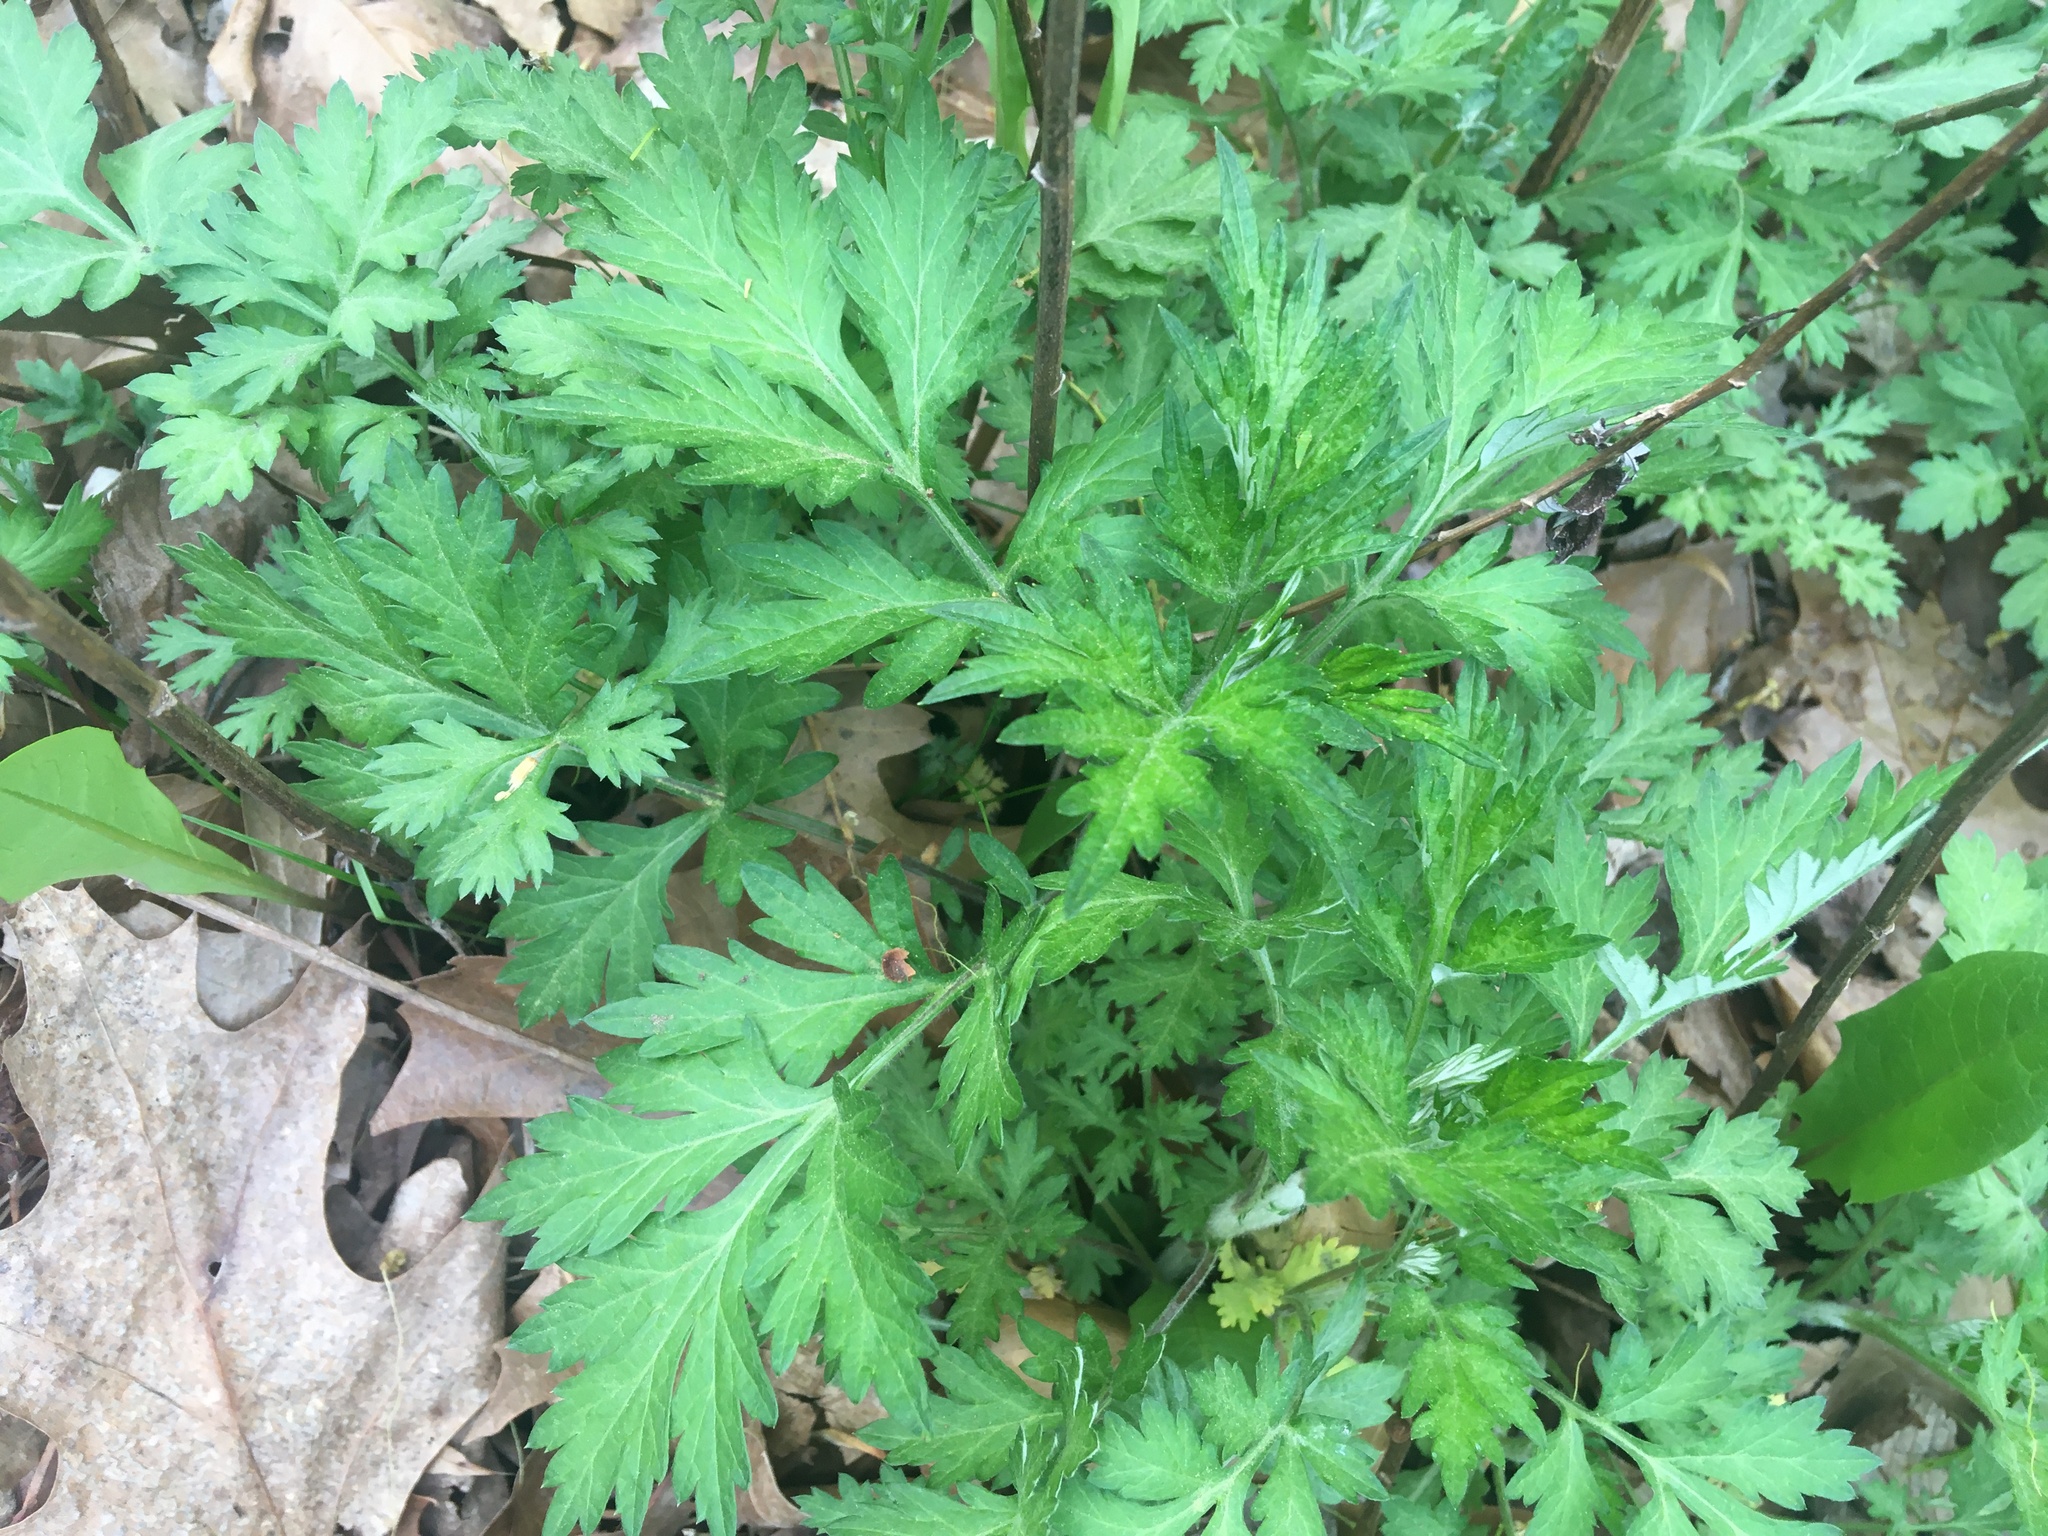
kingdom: Plantae
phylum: Tracheophyta
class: Magnoliopsida
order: Asterales
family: Asteraceae
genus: Artemisia
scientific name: Artemisia vulgaris
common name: Mugwort
